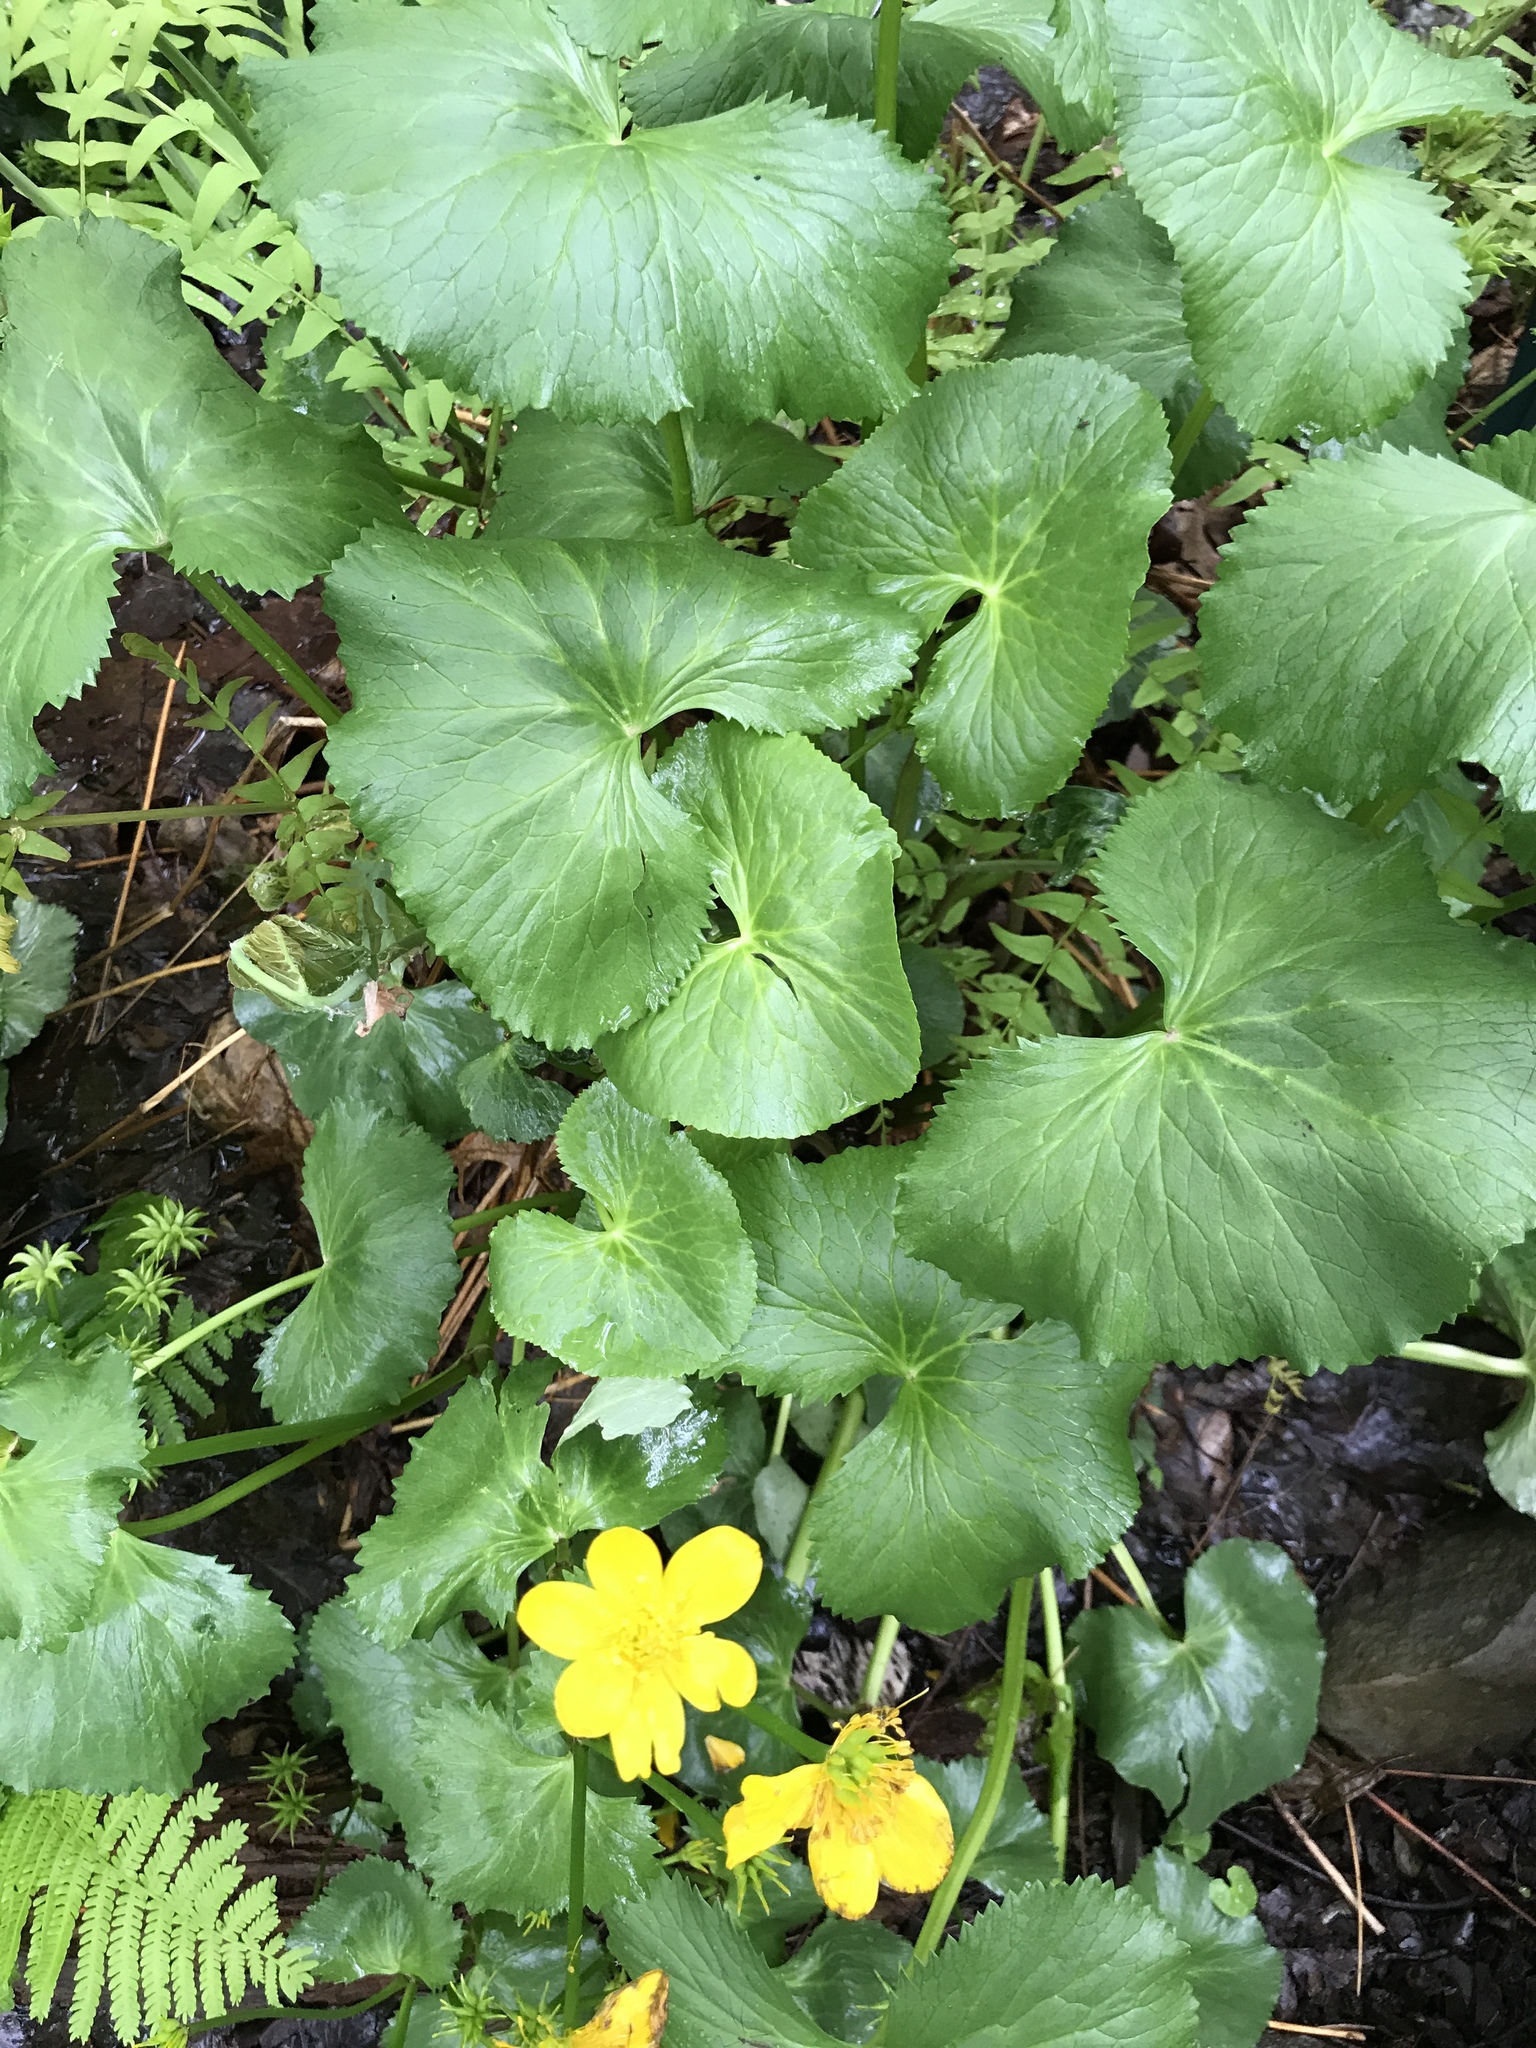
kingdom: Plantae
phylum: Tracheophyta
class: Magnoliopsida
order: Ranunculales
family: Ranunculaceae
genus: Caltha
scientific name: Caltha palustris
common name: Marsh marigold
